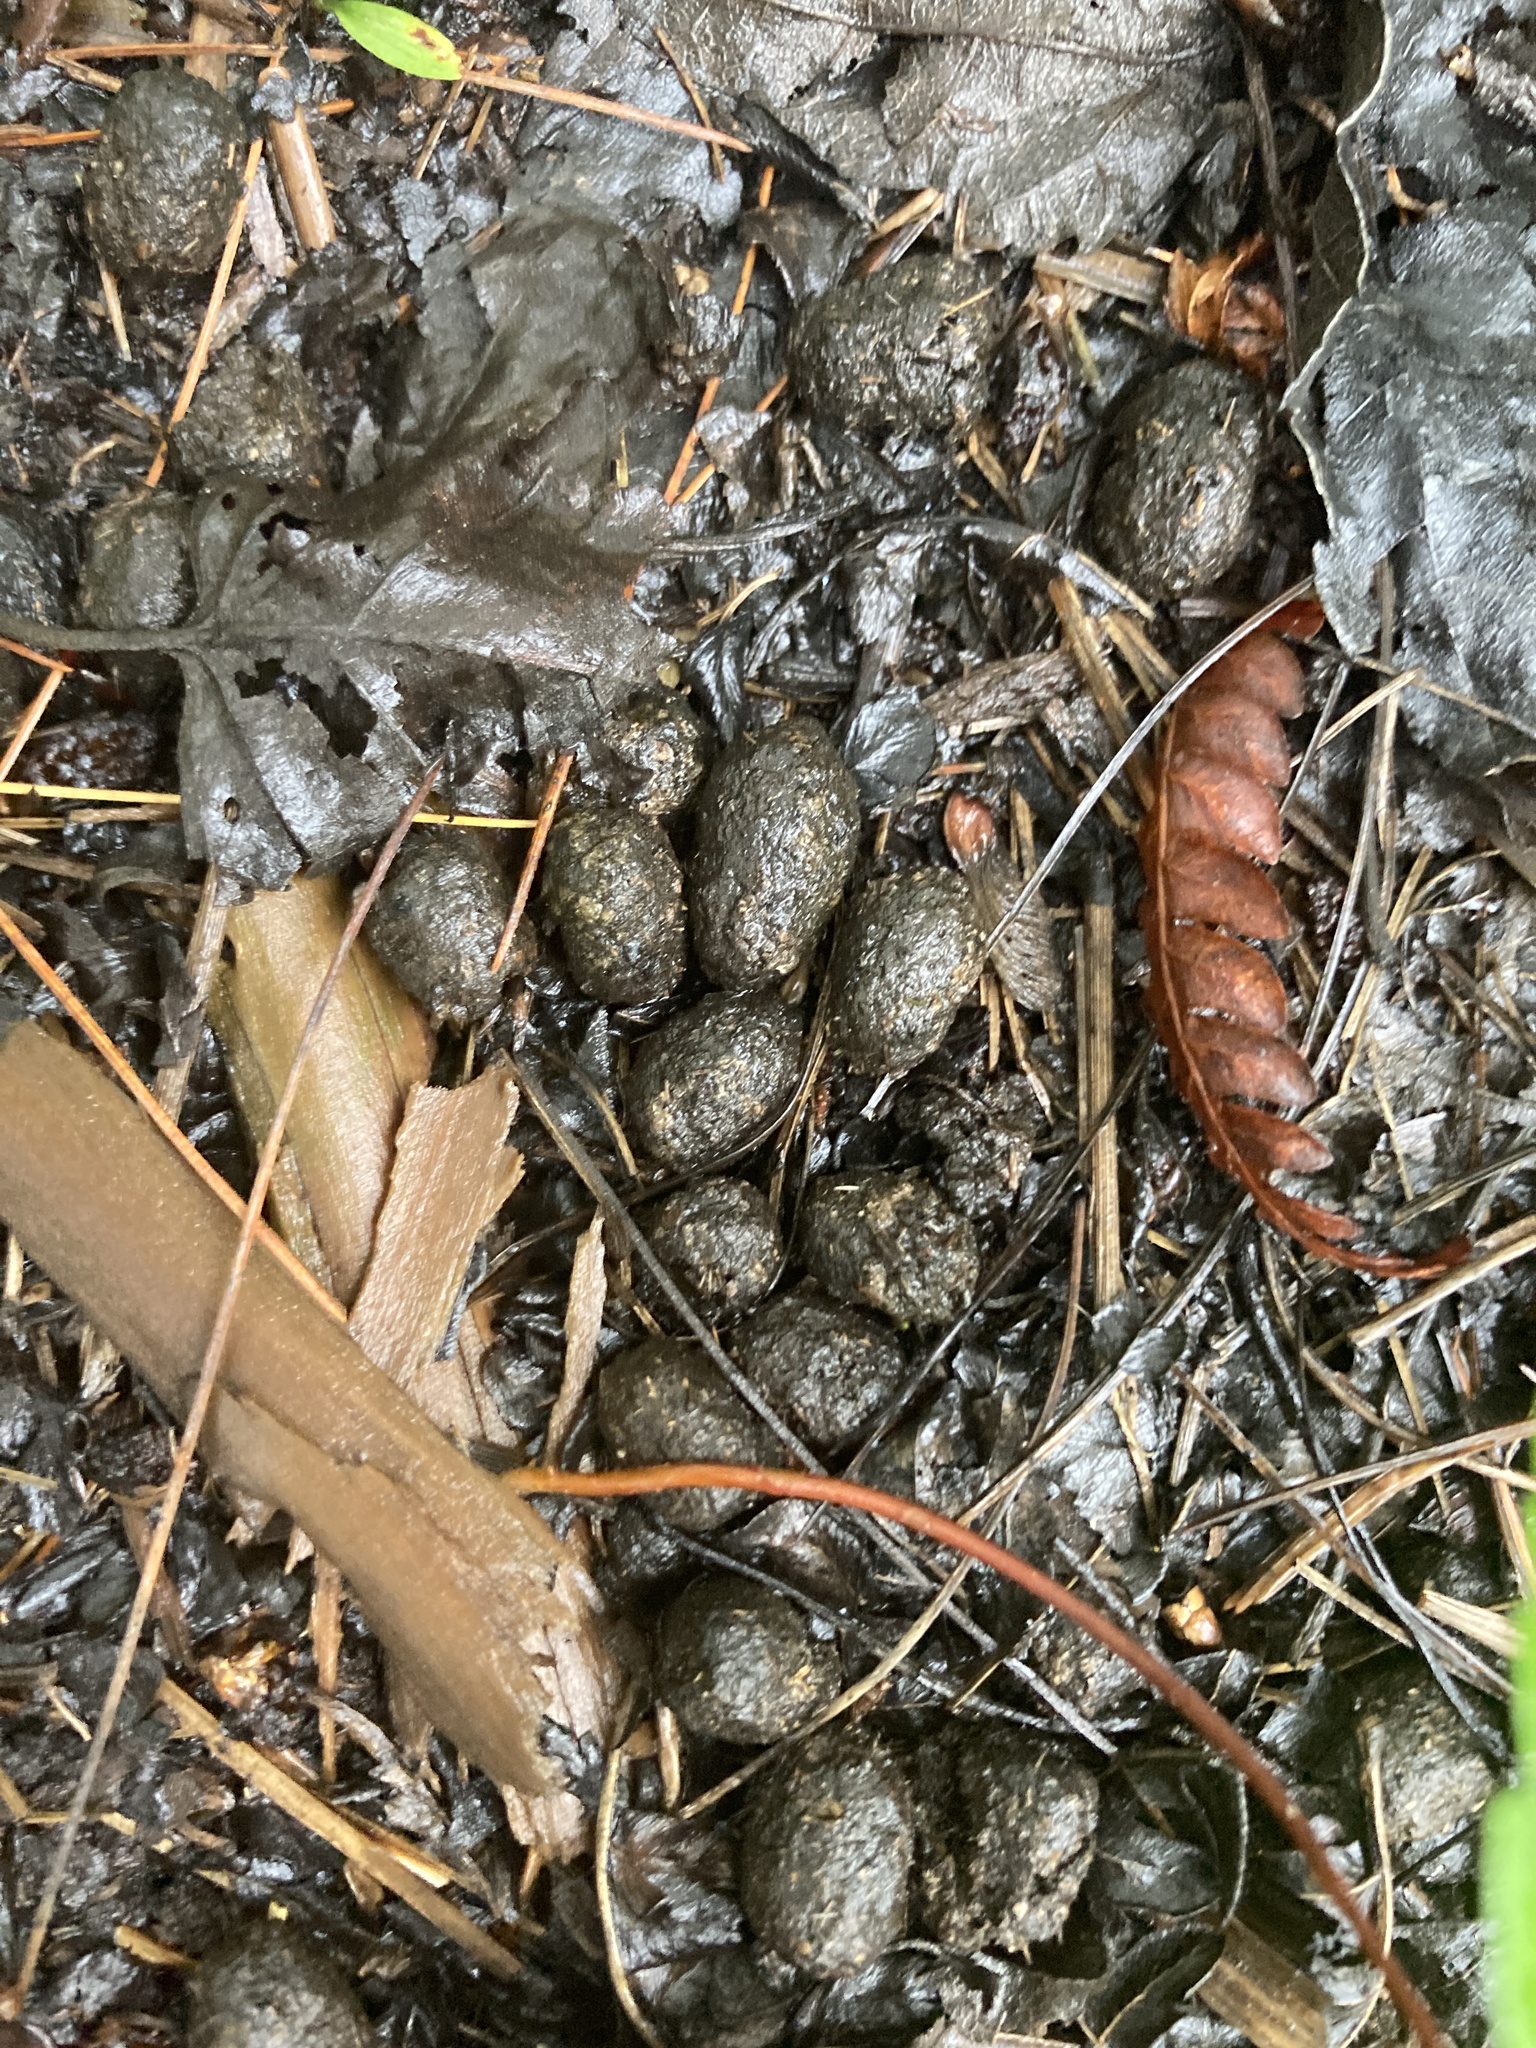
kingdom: Animalia
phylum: Chordata
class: Mammalia
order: Artiodactyla
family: Cervidae
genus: Odocoileus
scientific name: Odocoileus virginianus
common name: White-tailed deer
